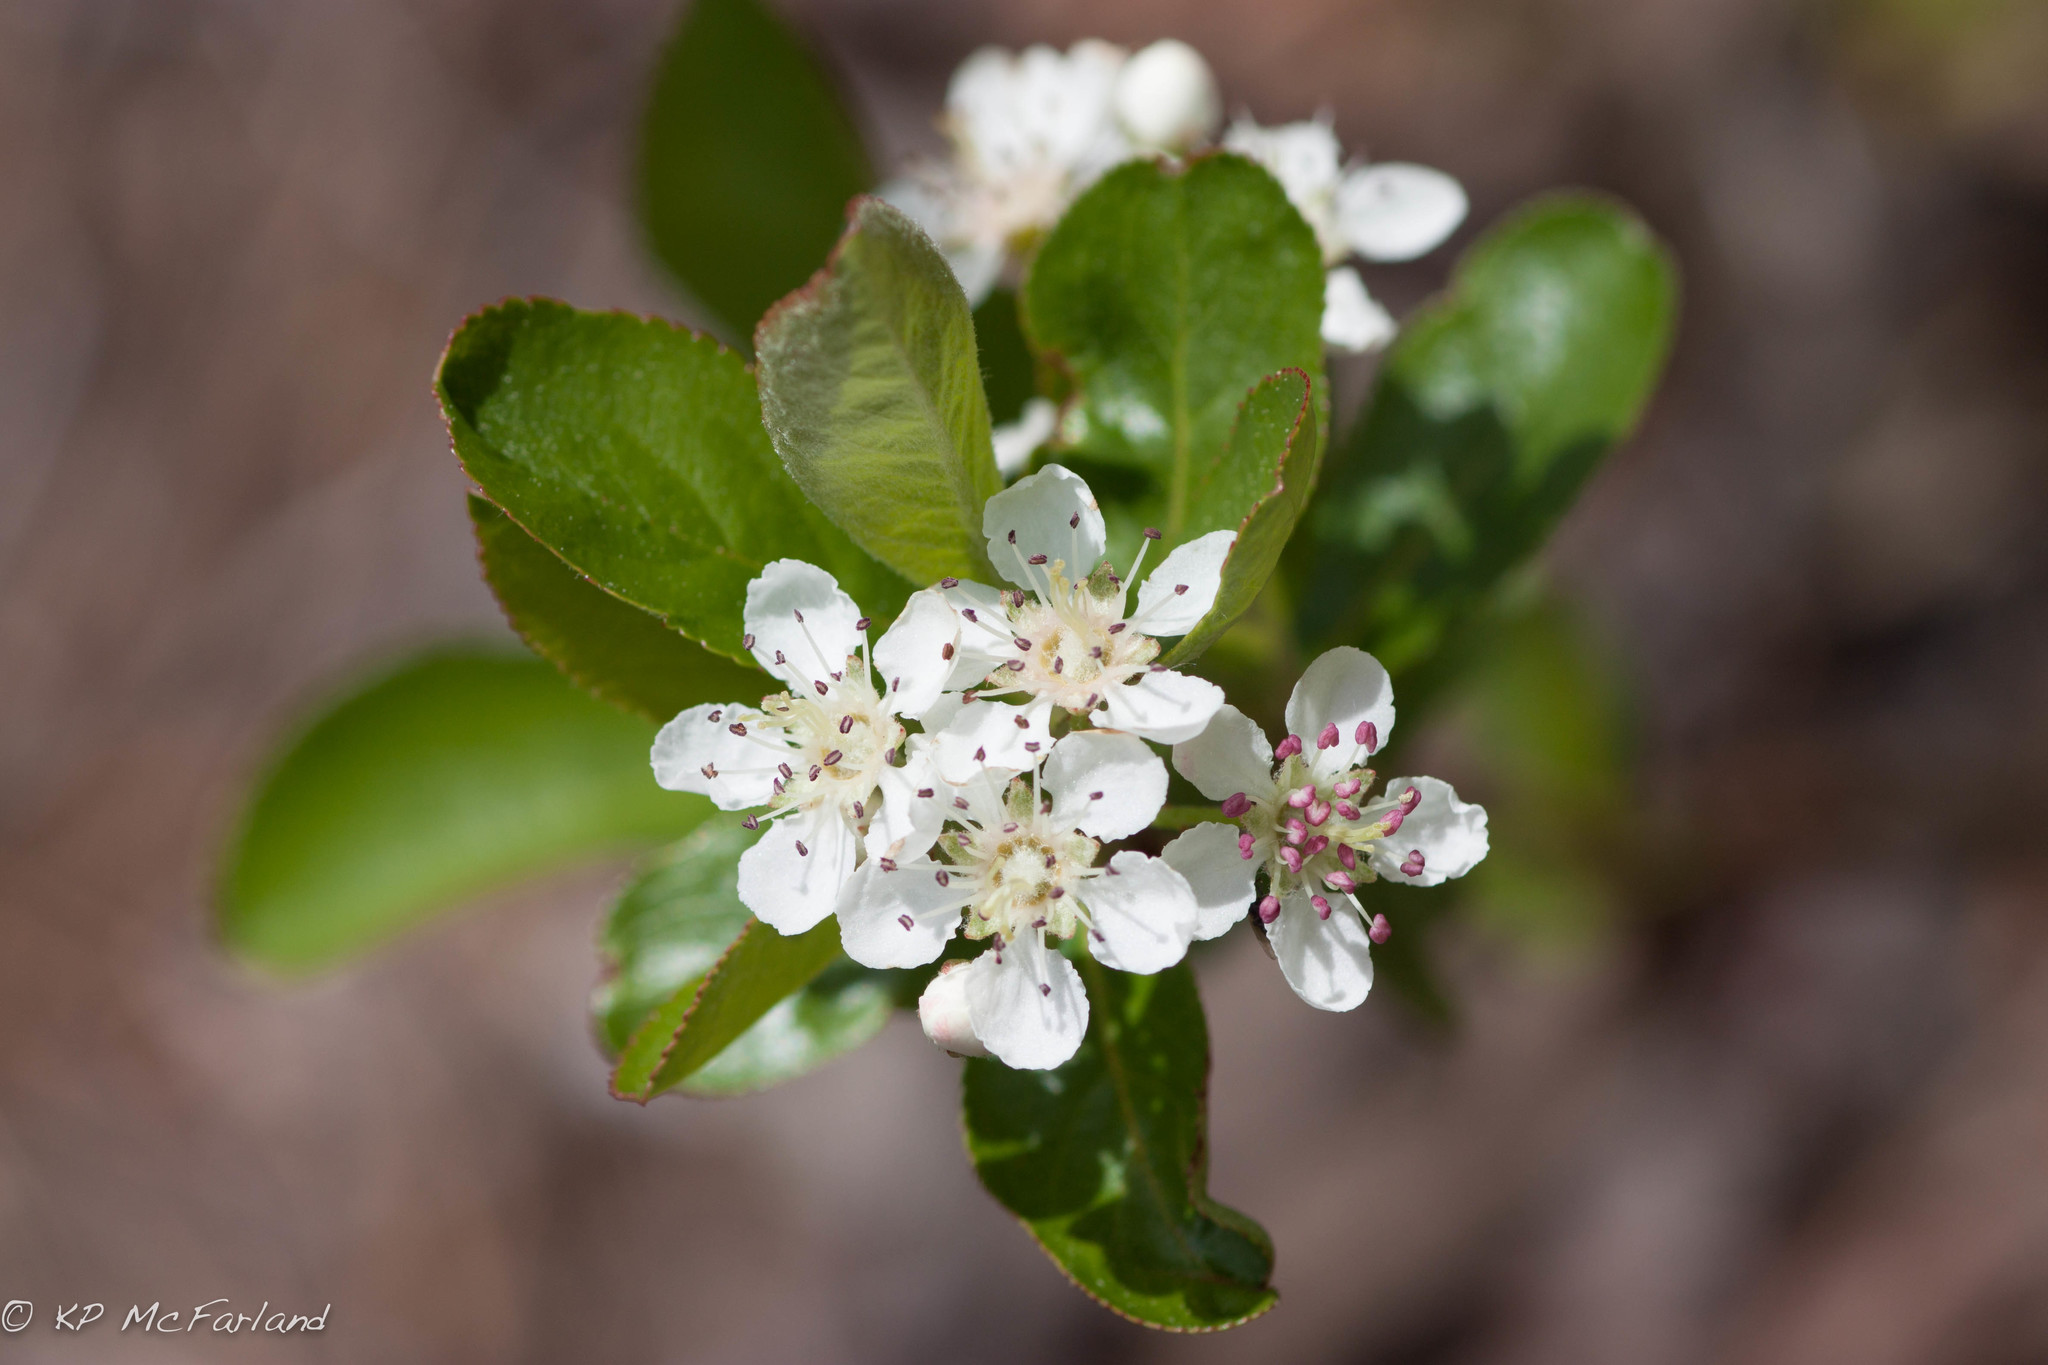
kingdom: Plantae
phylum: Tracheophyta
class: Magnoliopsida
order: Rosales
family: Rosaceae
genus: Aronia
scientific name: Aronia melanocarpa
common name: Black chokeberry
